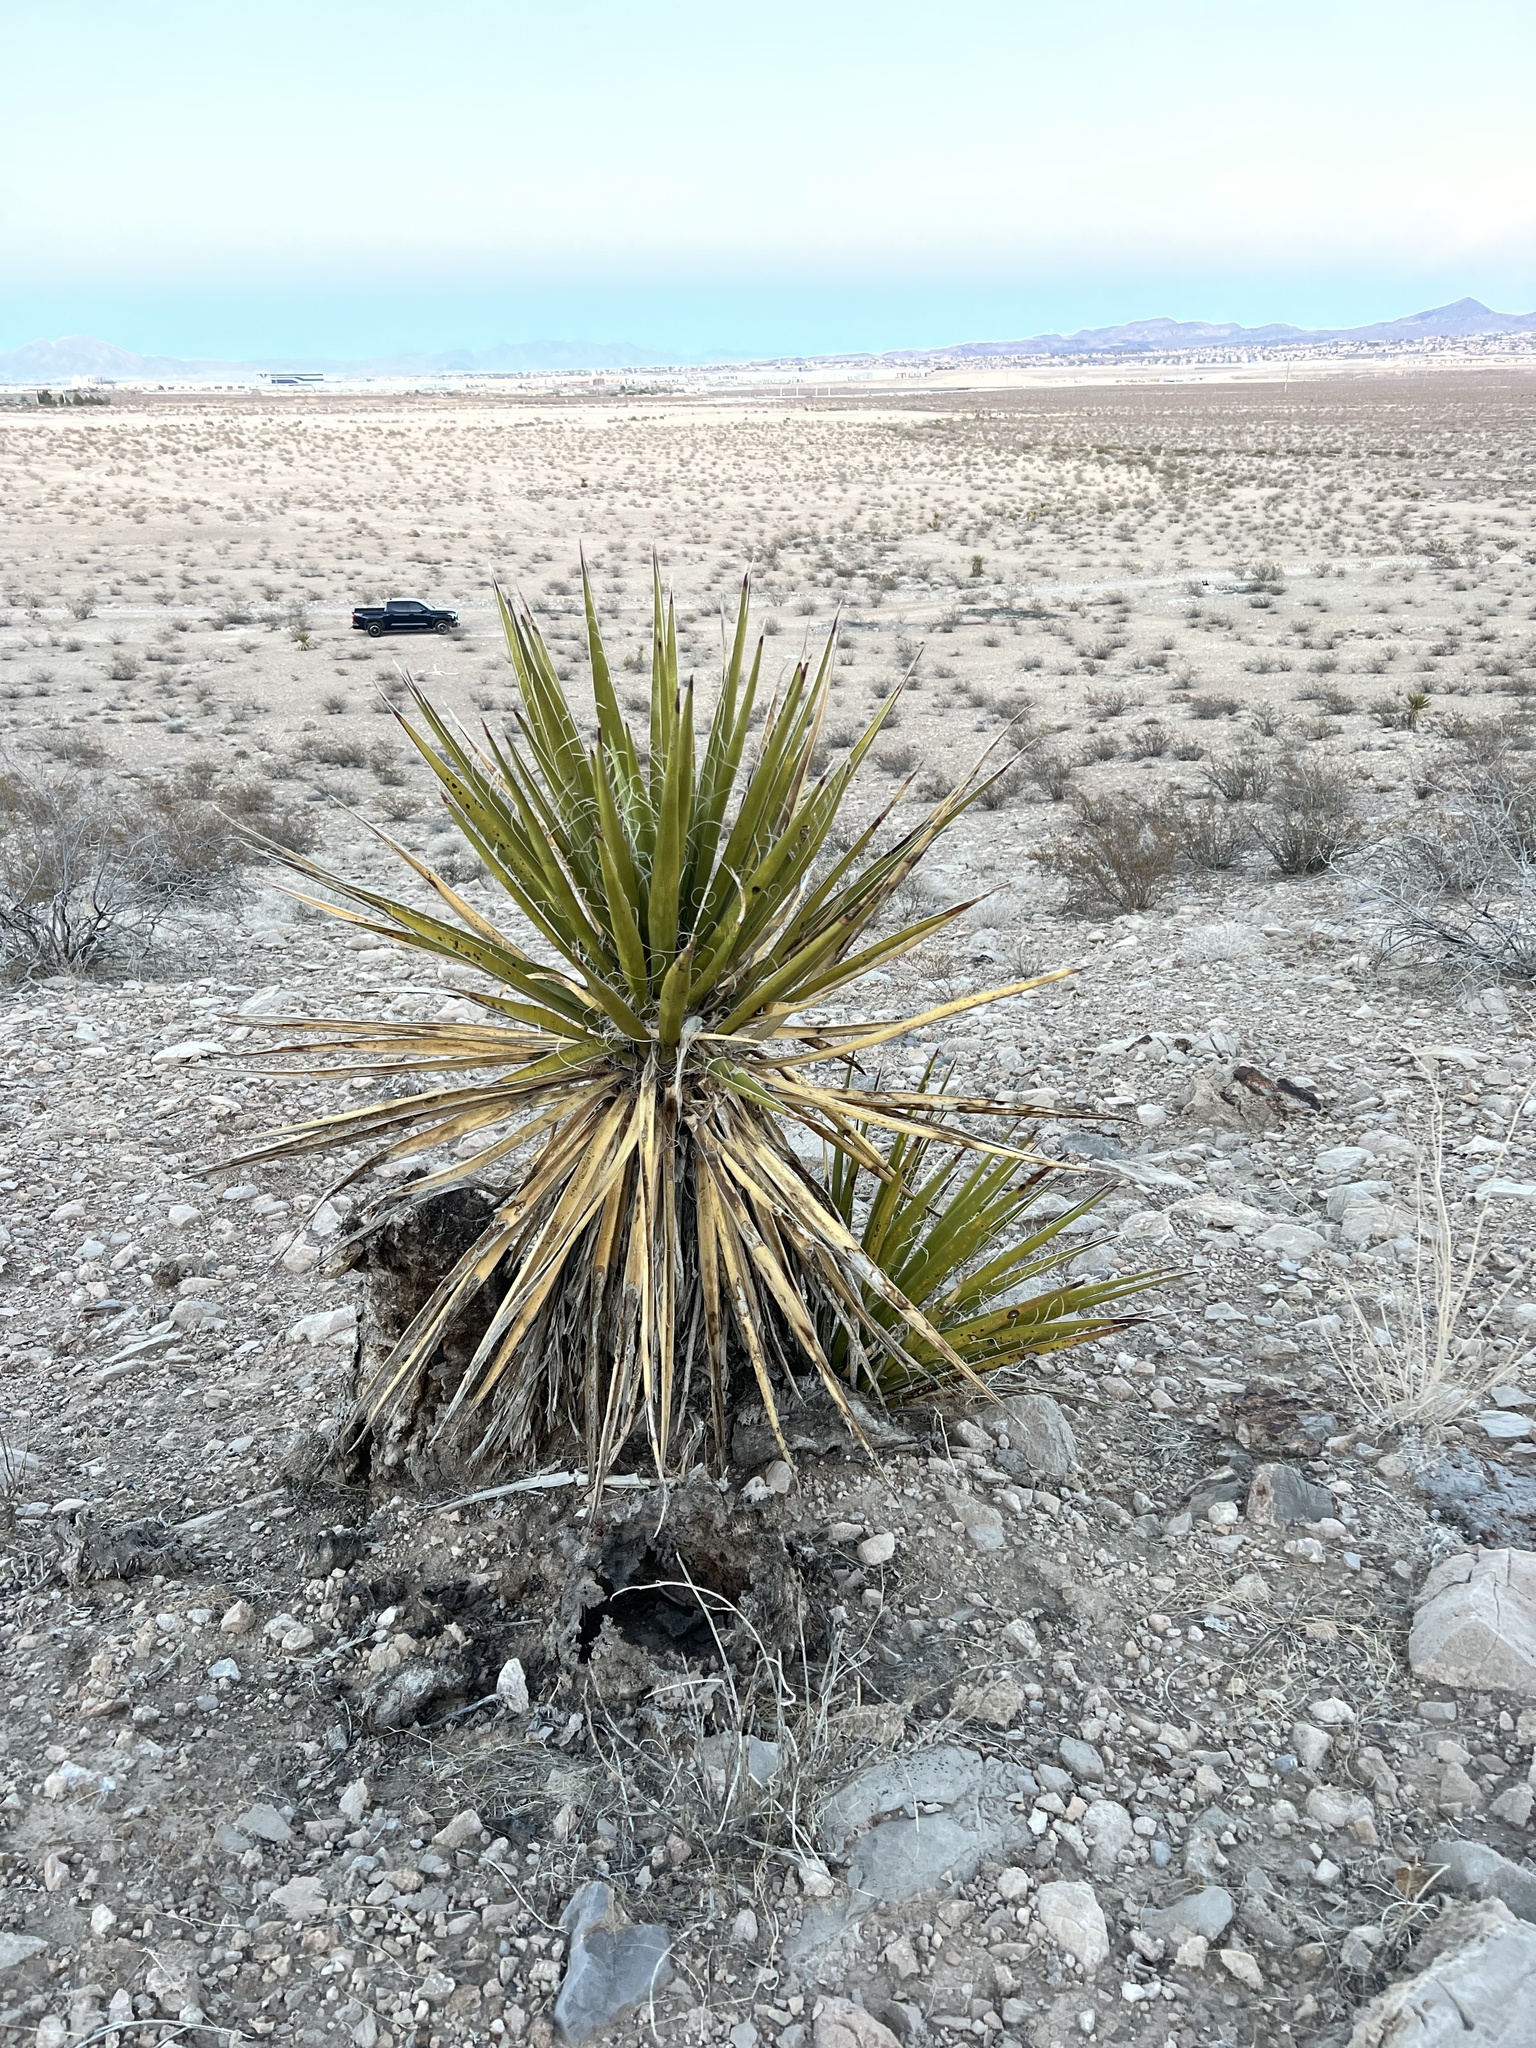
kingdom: Plantae
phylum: Tracheophyta
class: Liliopsida
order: Asparagales
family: Asparagaceae
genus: Yucca
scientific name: Yucca schidigera
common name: Mojave yucca
